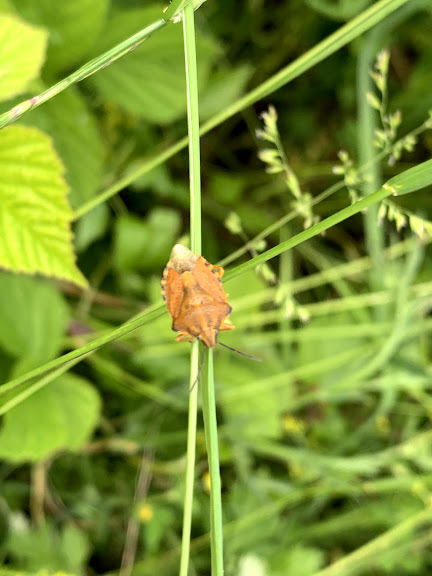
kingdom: Animalia
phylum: Arthropoda
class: Insecta
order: Hemiptera
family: Pentatomidae
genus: Carpocoris
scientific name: Carpocoris purpureipennis
